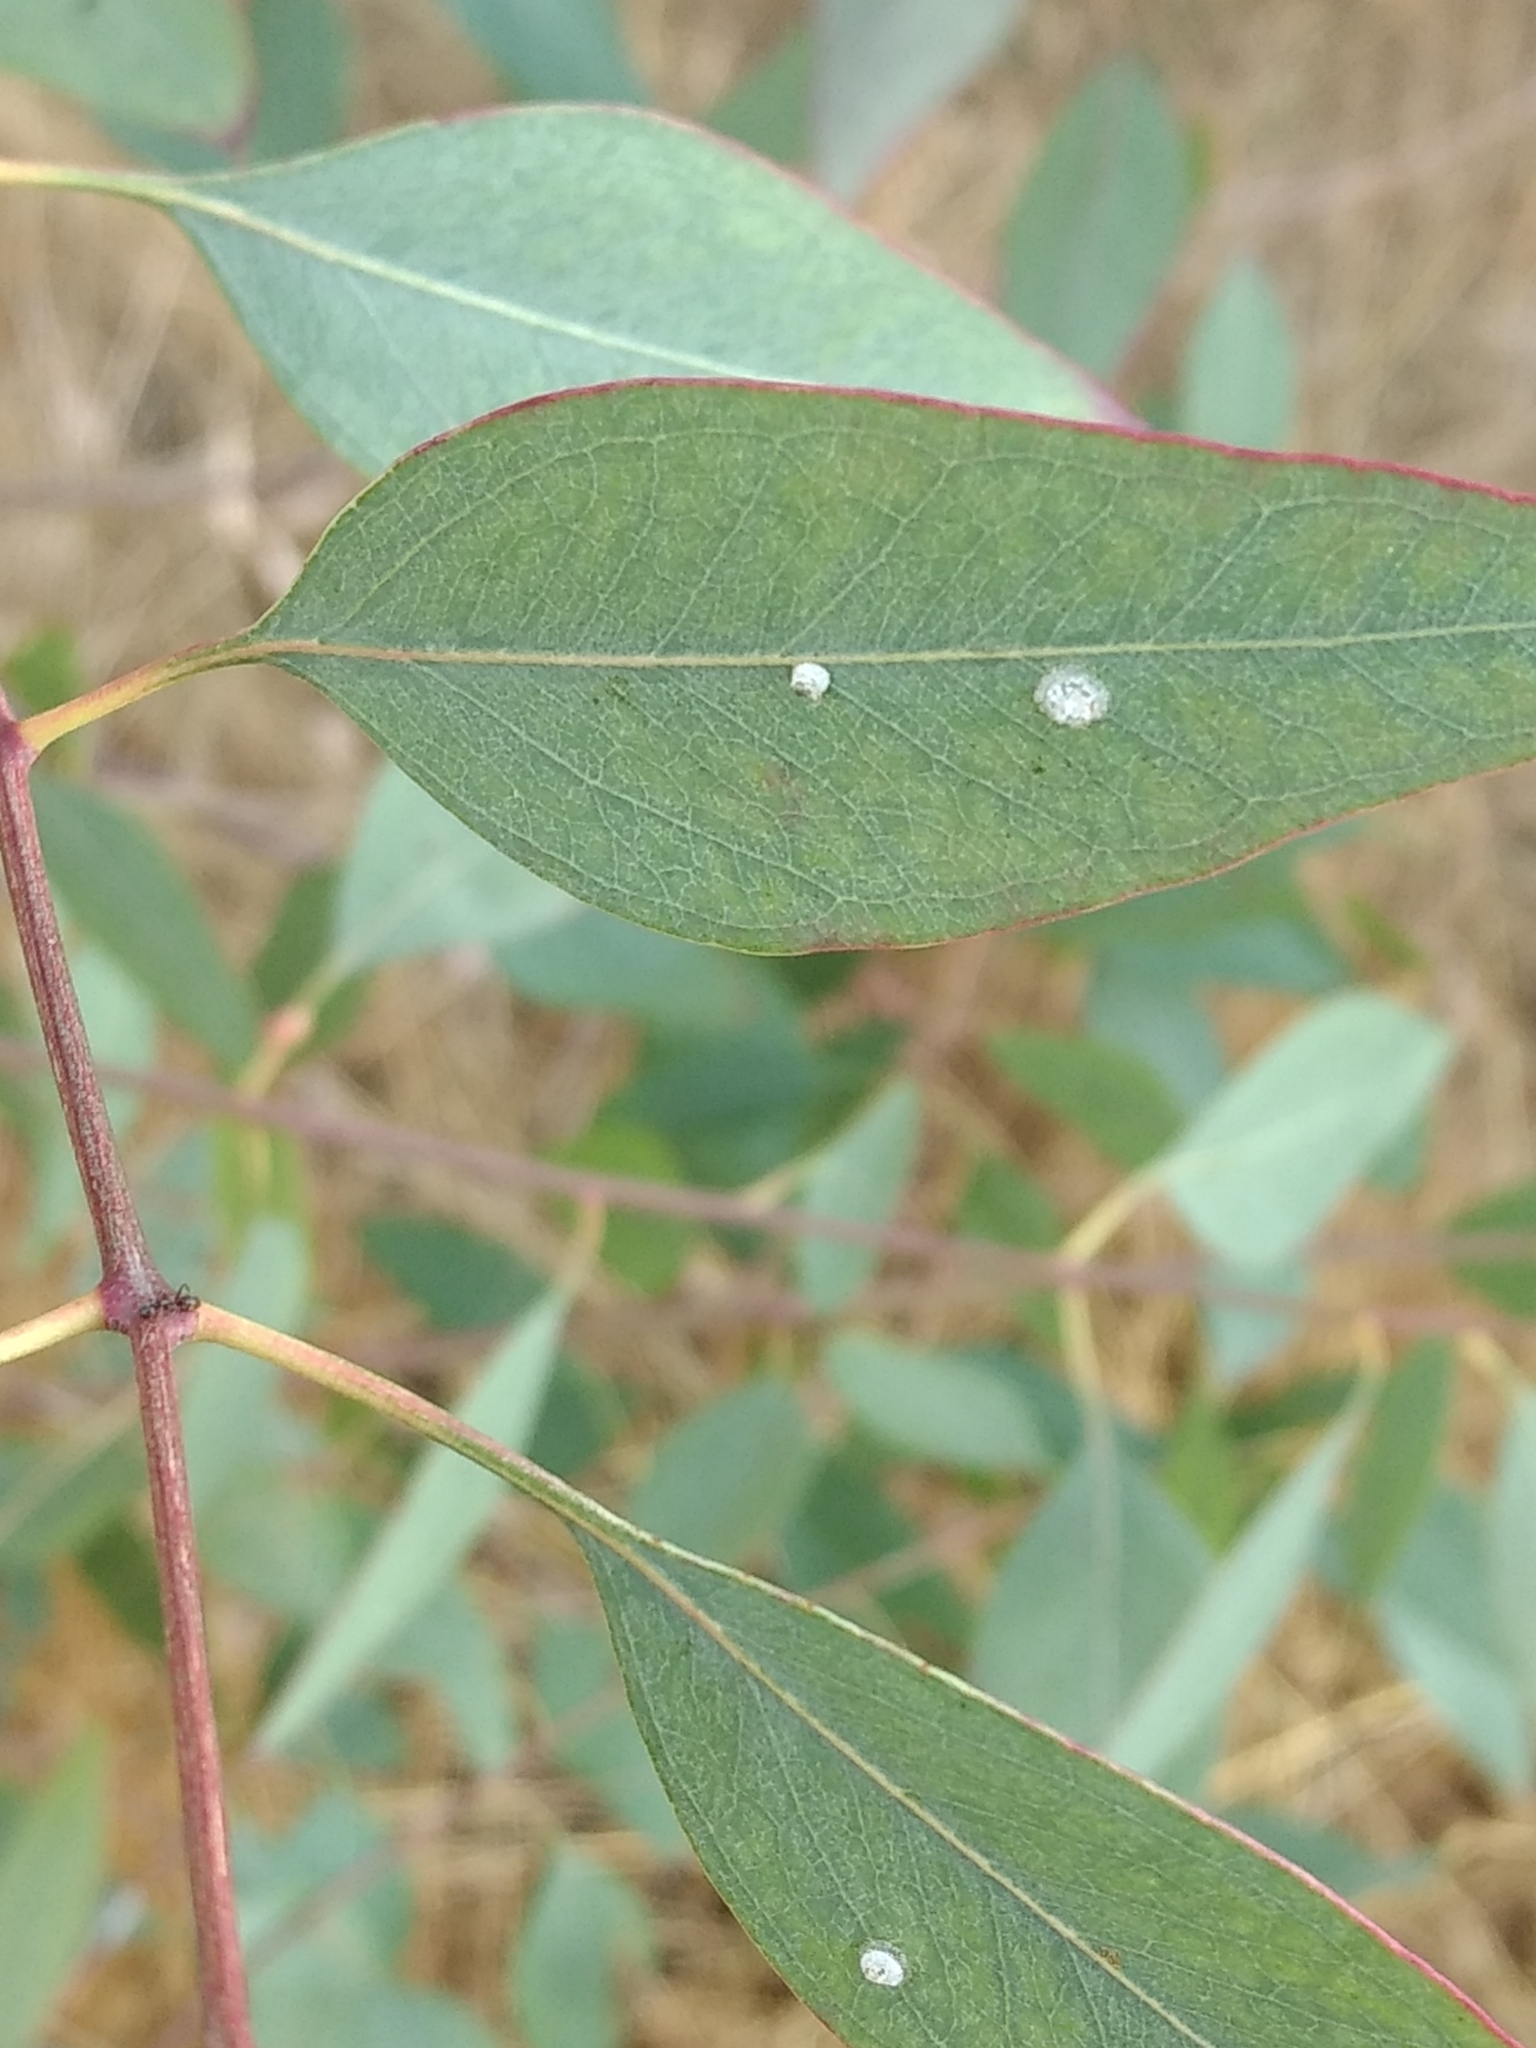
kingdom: Animalia
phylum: Arthropoda
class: Insecta
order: Hemiptera
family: Aphalaridae
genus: Glycaspis
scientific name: Glycaspis brimblecombei
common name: Red gum lerp psyllid
